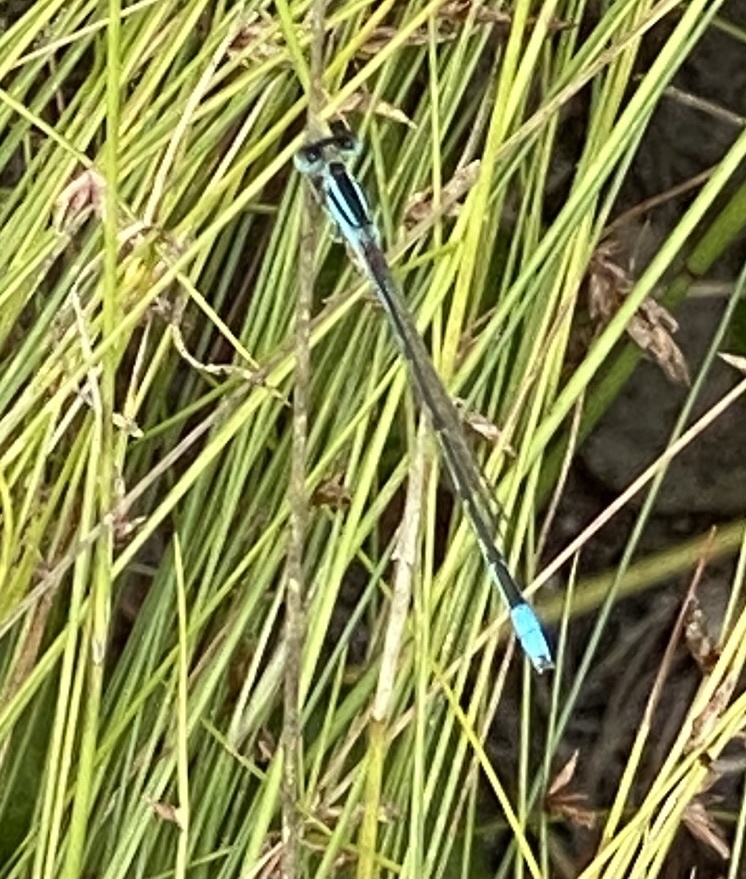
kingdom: Animalia
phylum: Arthropoda
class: Insecta
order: Odonata
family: Coenagrionidae
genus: Africallagma
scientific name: Africallagma glaucum
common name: Swamp bluet
